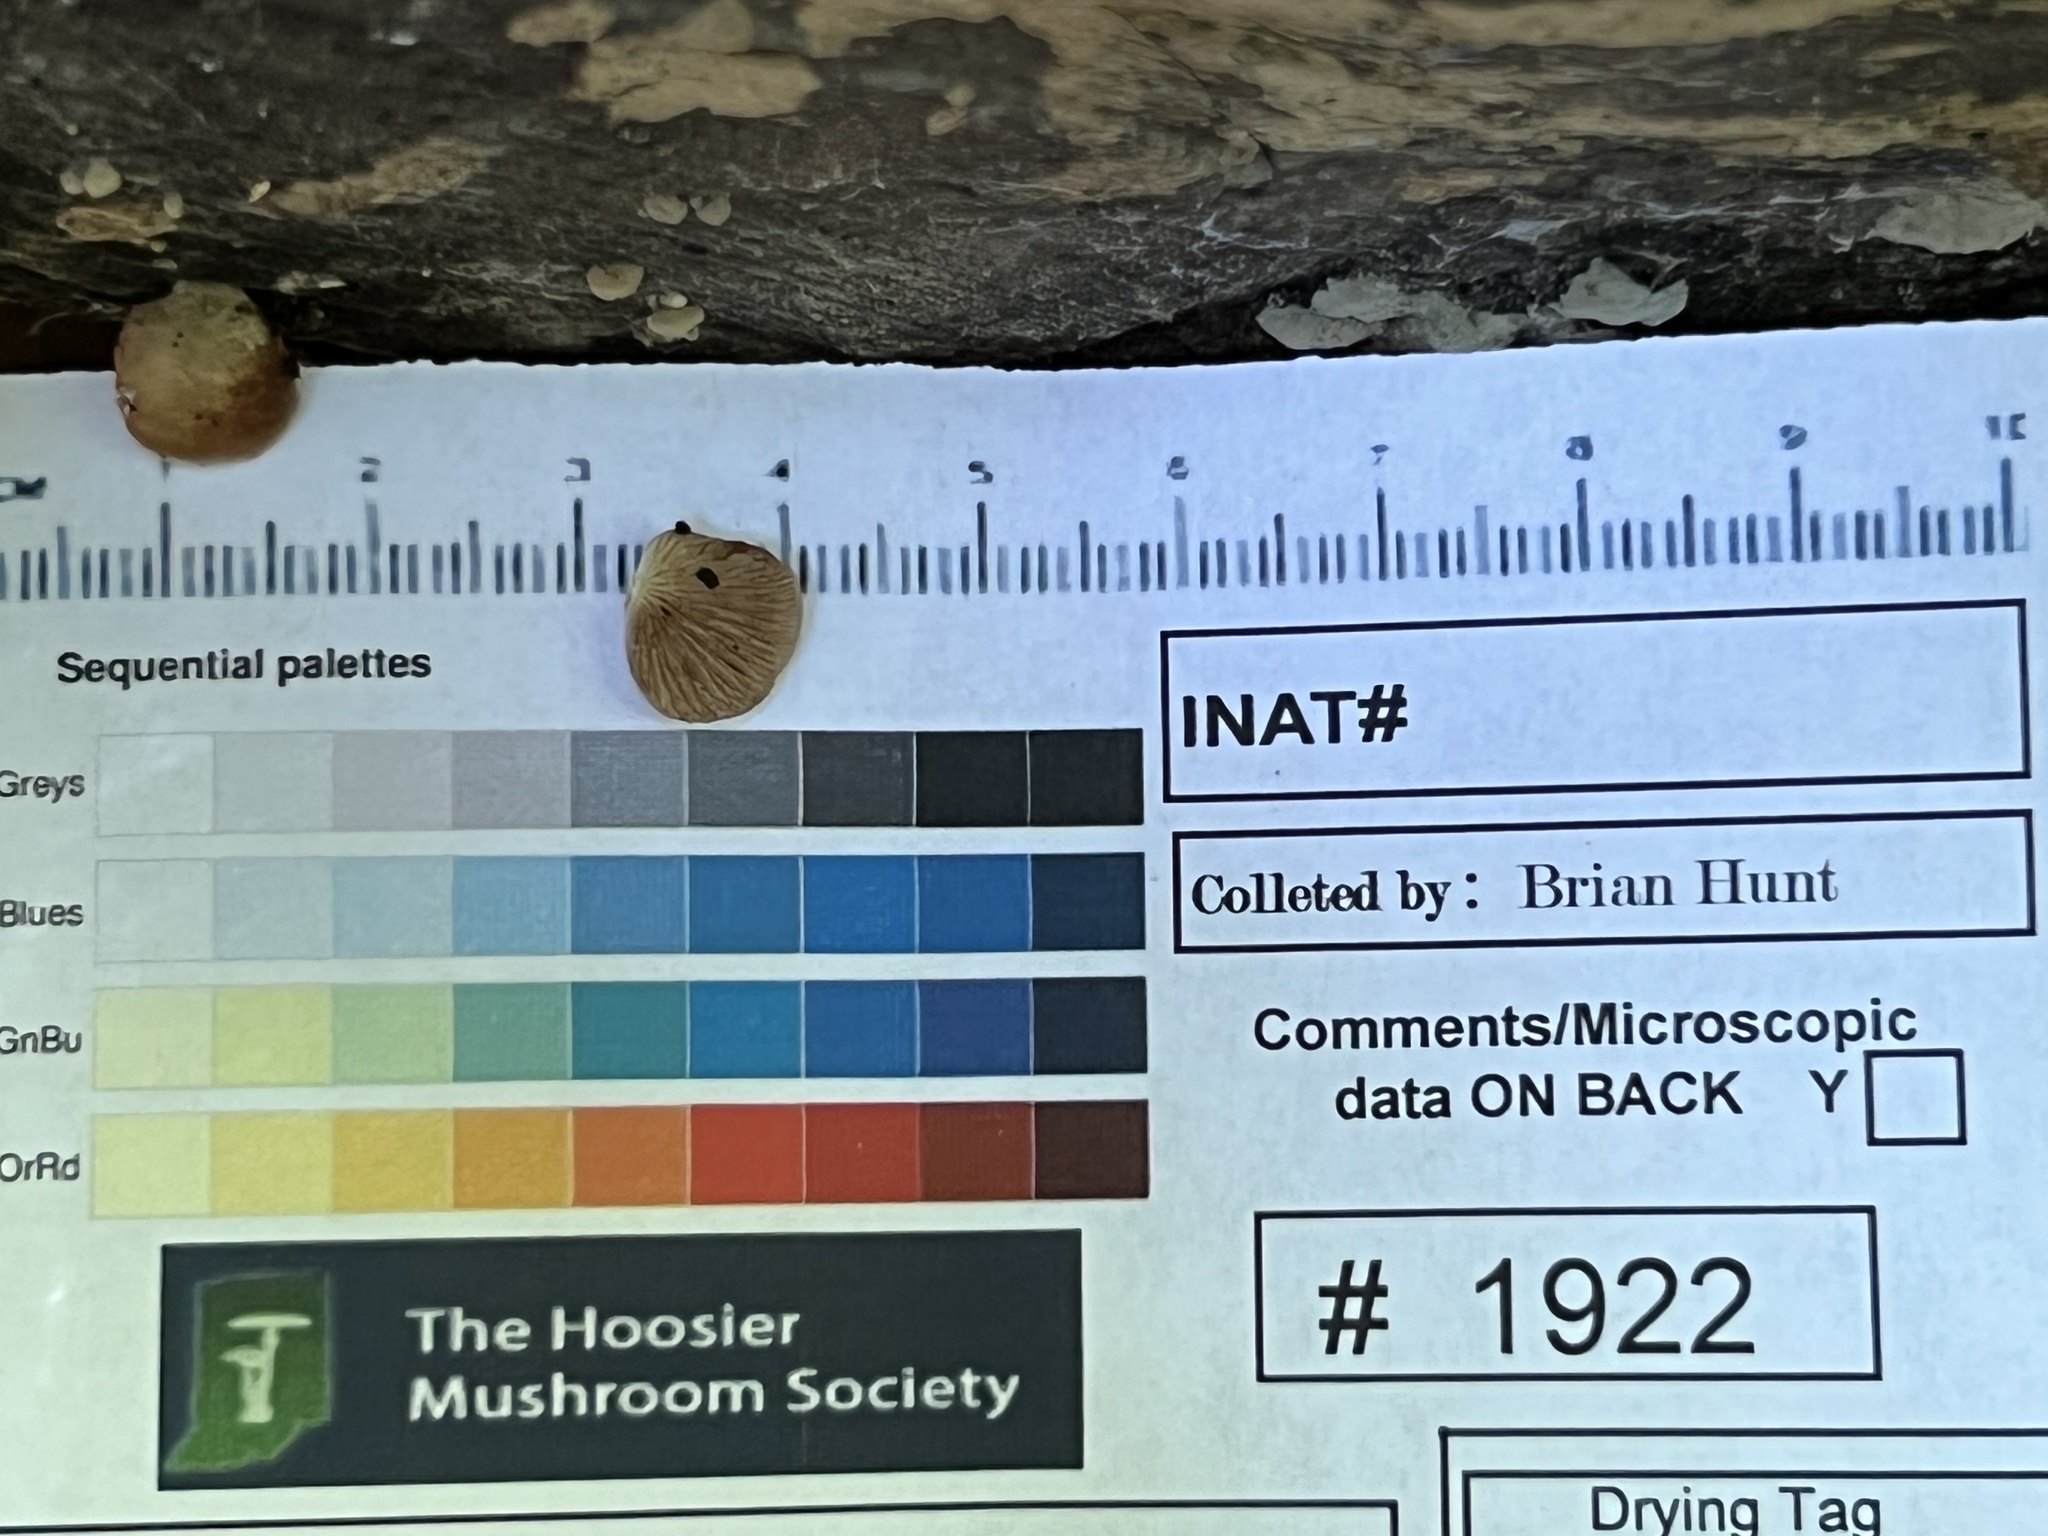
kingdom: Fungi
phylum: Basidiomycota
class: Agaricomycetes
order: Agaricales
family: Crepidotaceae
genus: Crepidotus
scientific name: Crepidotus alabamensis
